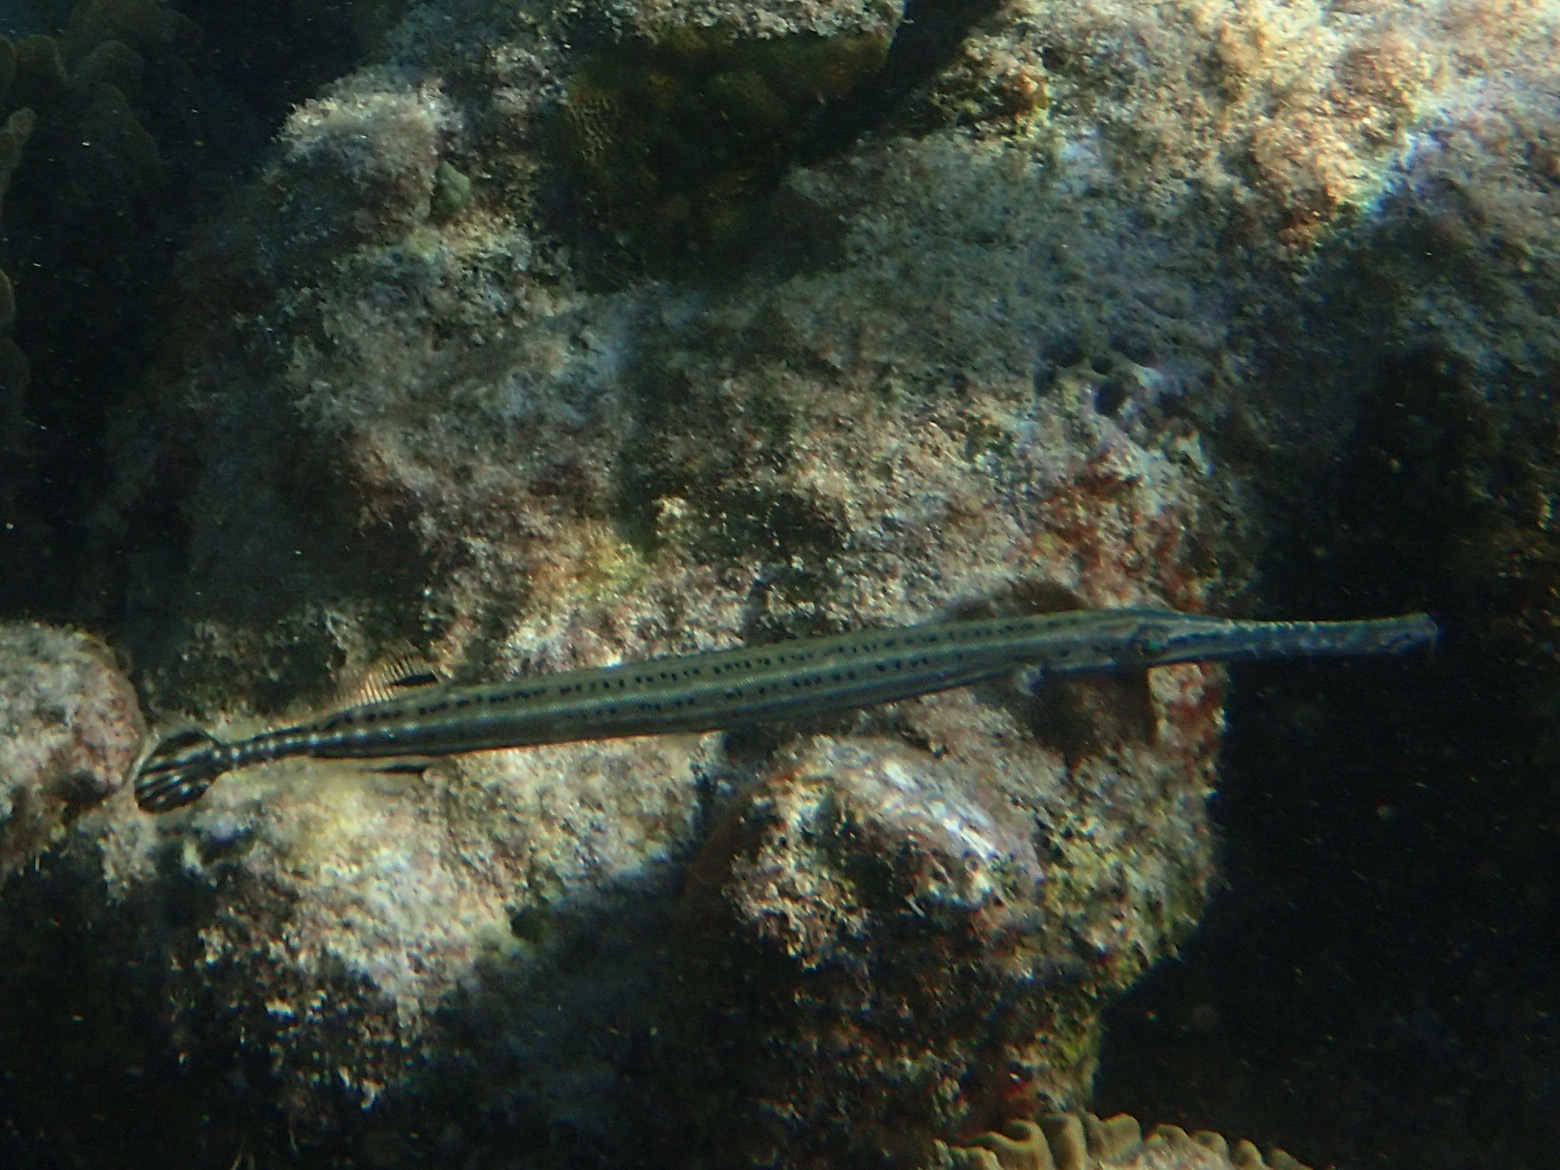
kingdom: Animalia
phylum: Chordata
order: Syngnathiformes
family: Aulostomidae
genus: Aulostomus
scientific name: Aulostomus maculatus
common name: West atlantic trumpetfish
